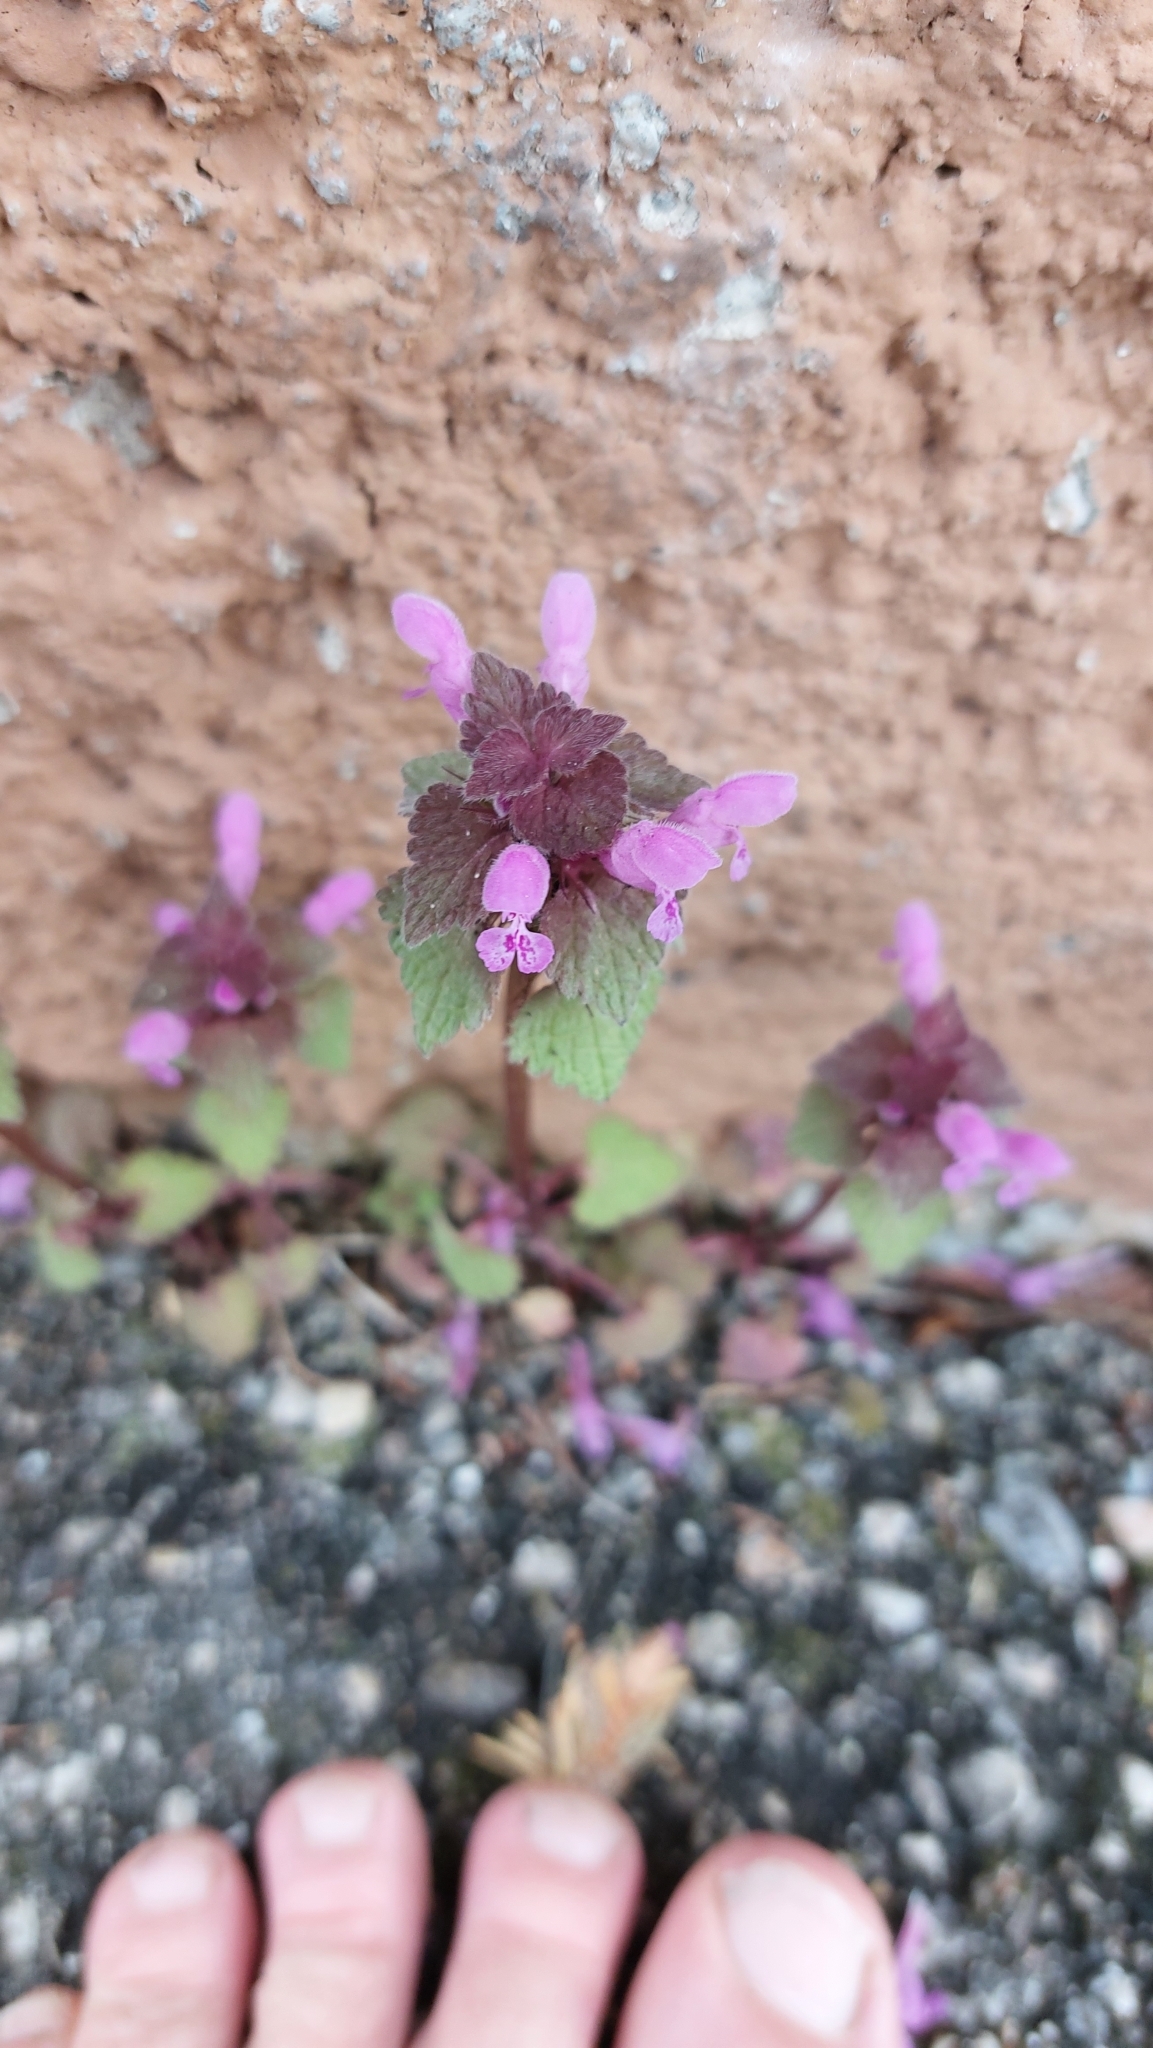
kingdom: Plantae
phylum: Tracheophyta
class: Magnoliopsida
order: Lamiales
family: Lamiaceae
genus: Lamium
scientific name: Lamium purpureum
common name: Red dead-nettle
